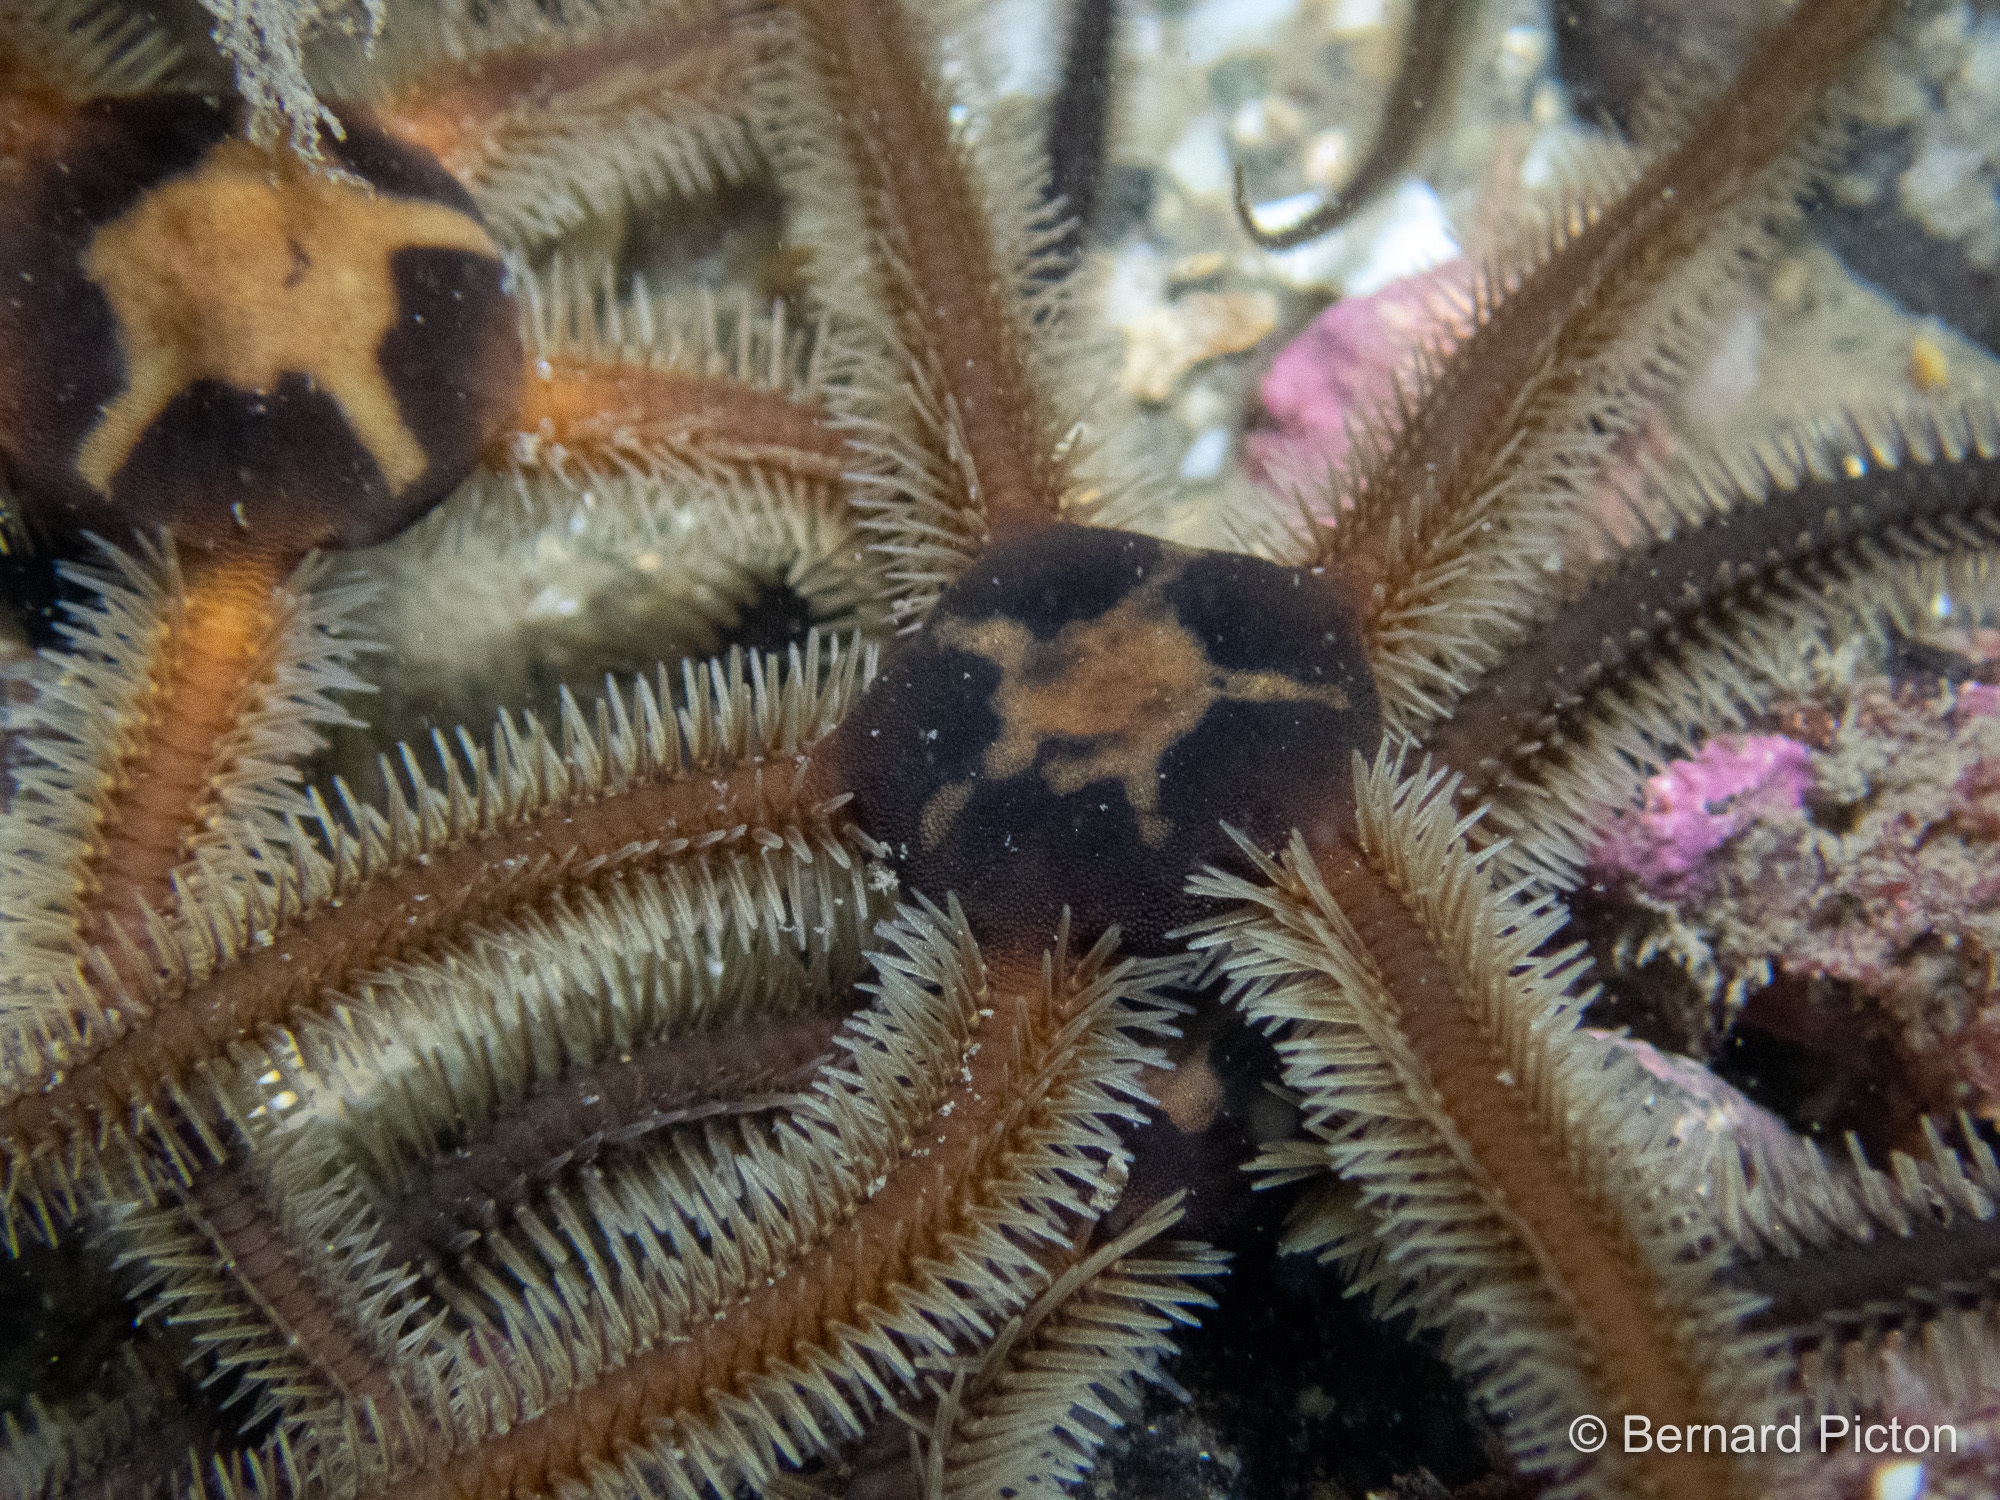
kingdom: Animalia
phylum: Echinodermata
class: Ophiuroidea
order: Ophiacanthida
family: Ophiotomidae
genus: Ophiocomina
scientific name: Ophiocomina nigra
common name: Black brittle star
